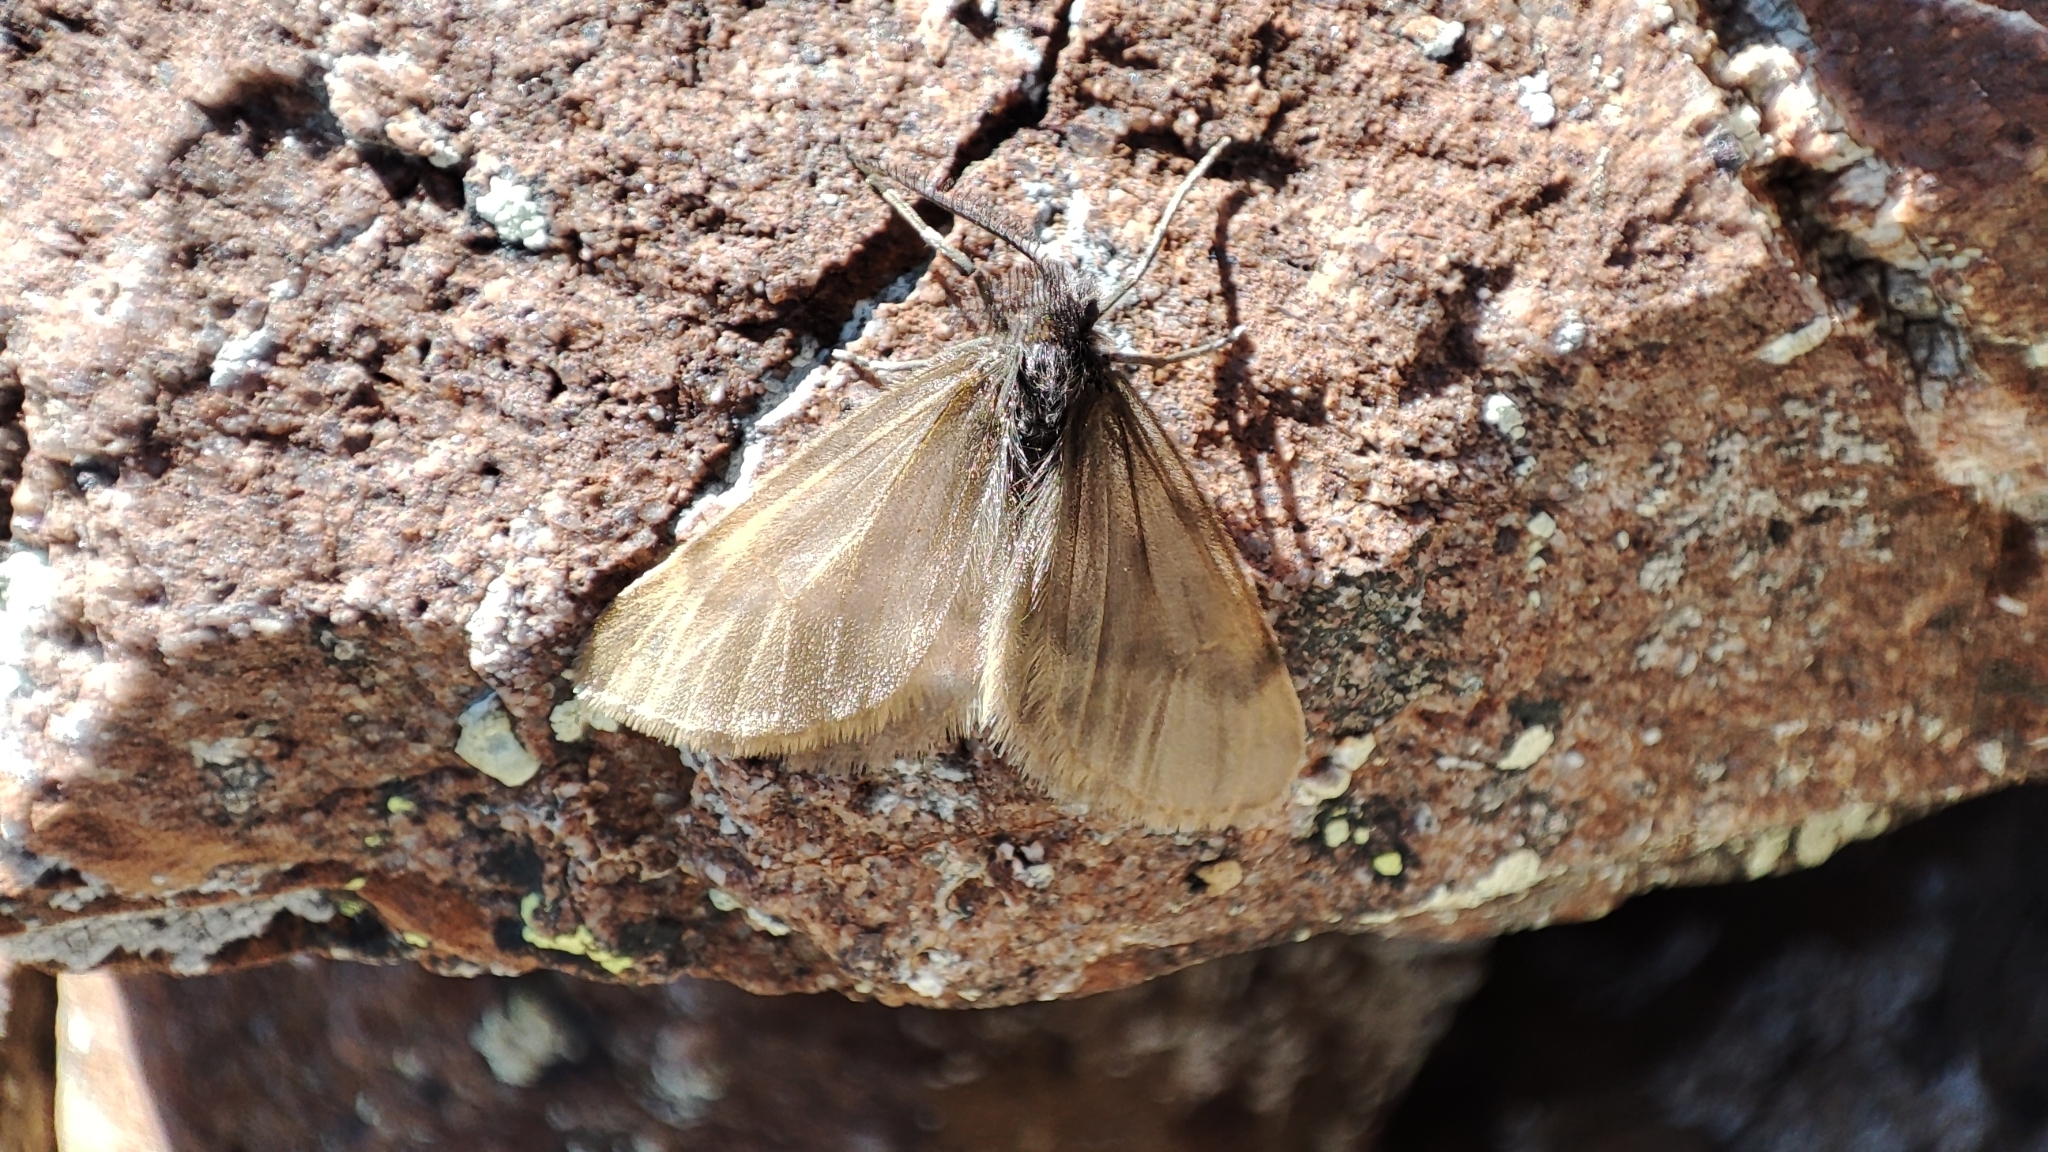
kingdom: Animalia
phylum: Arthropoda
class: Insecta
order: Lepidoptera
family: Geometridae
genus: Autotrichia
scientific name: Autotrichia heterogynoides
